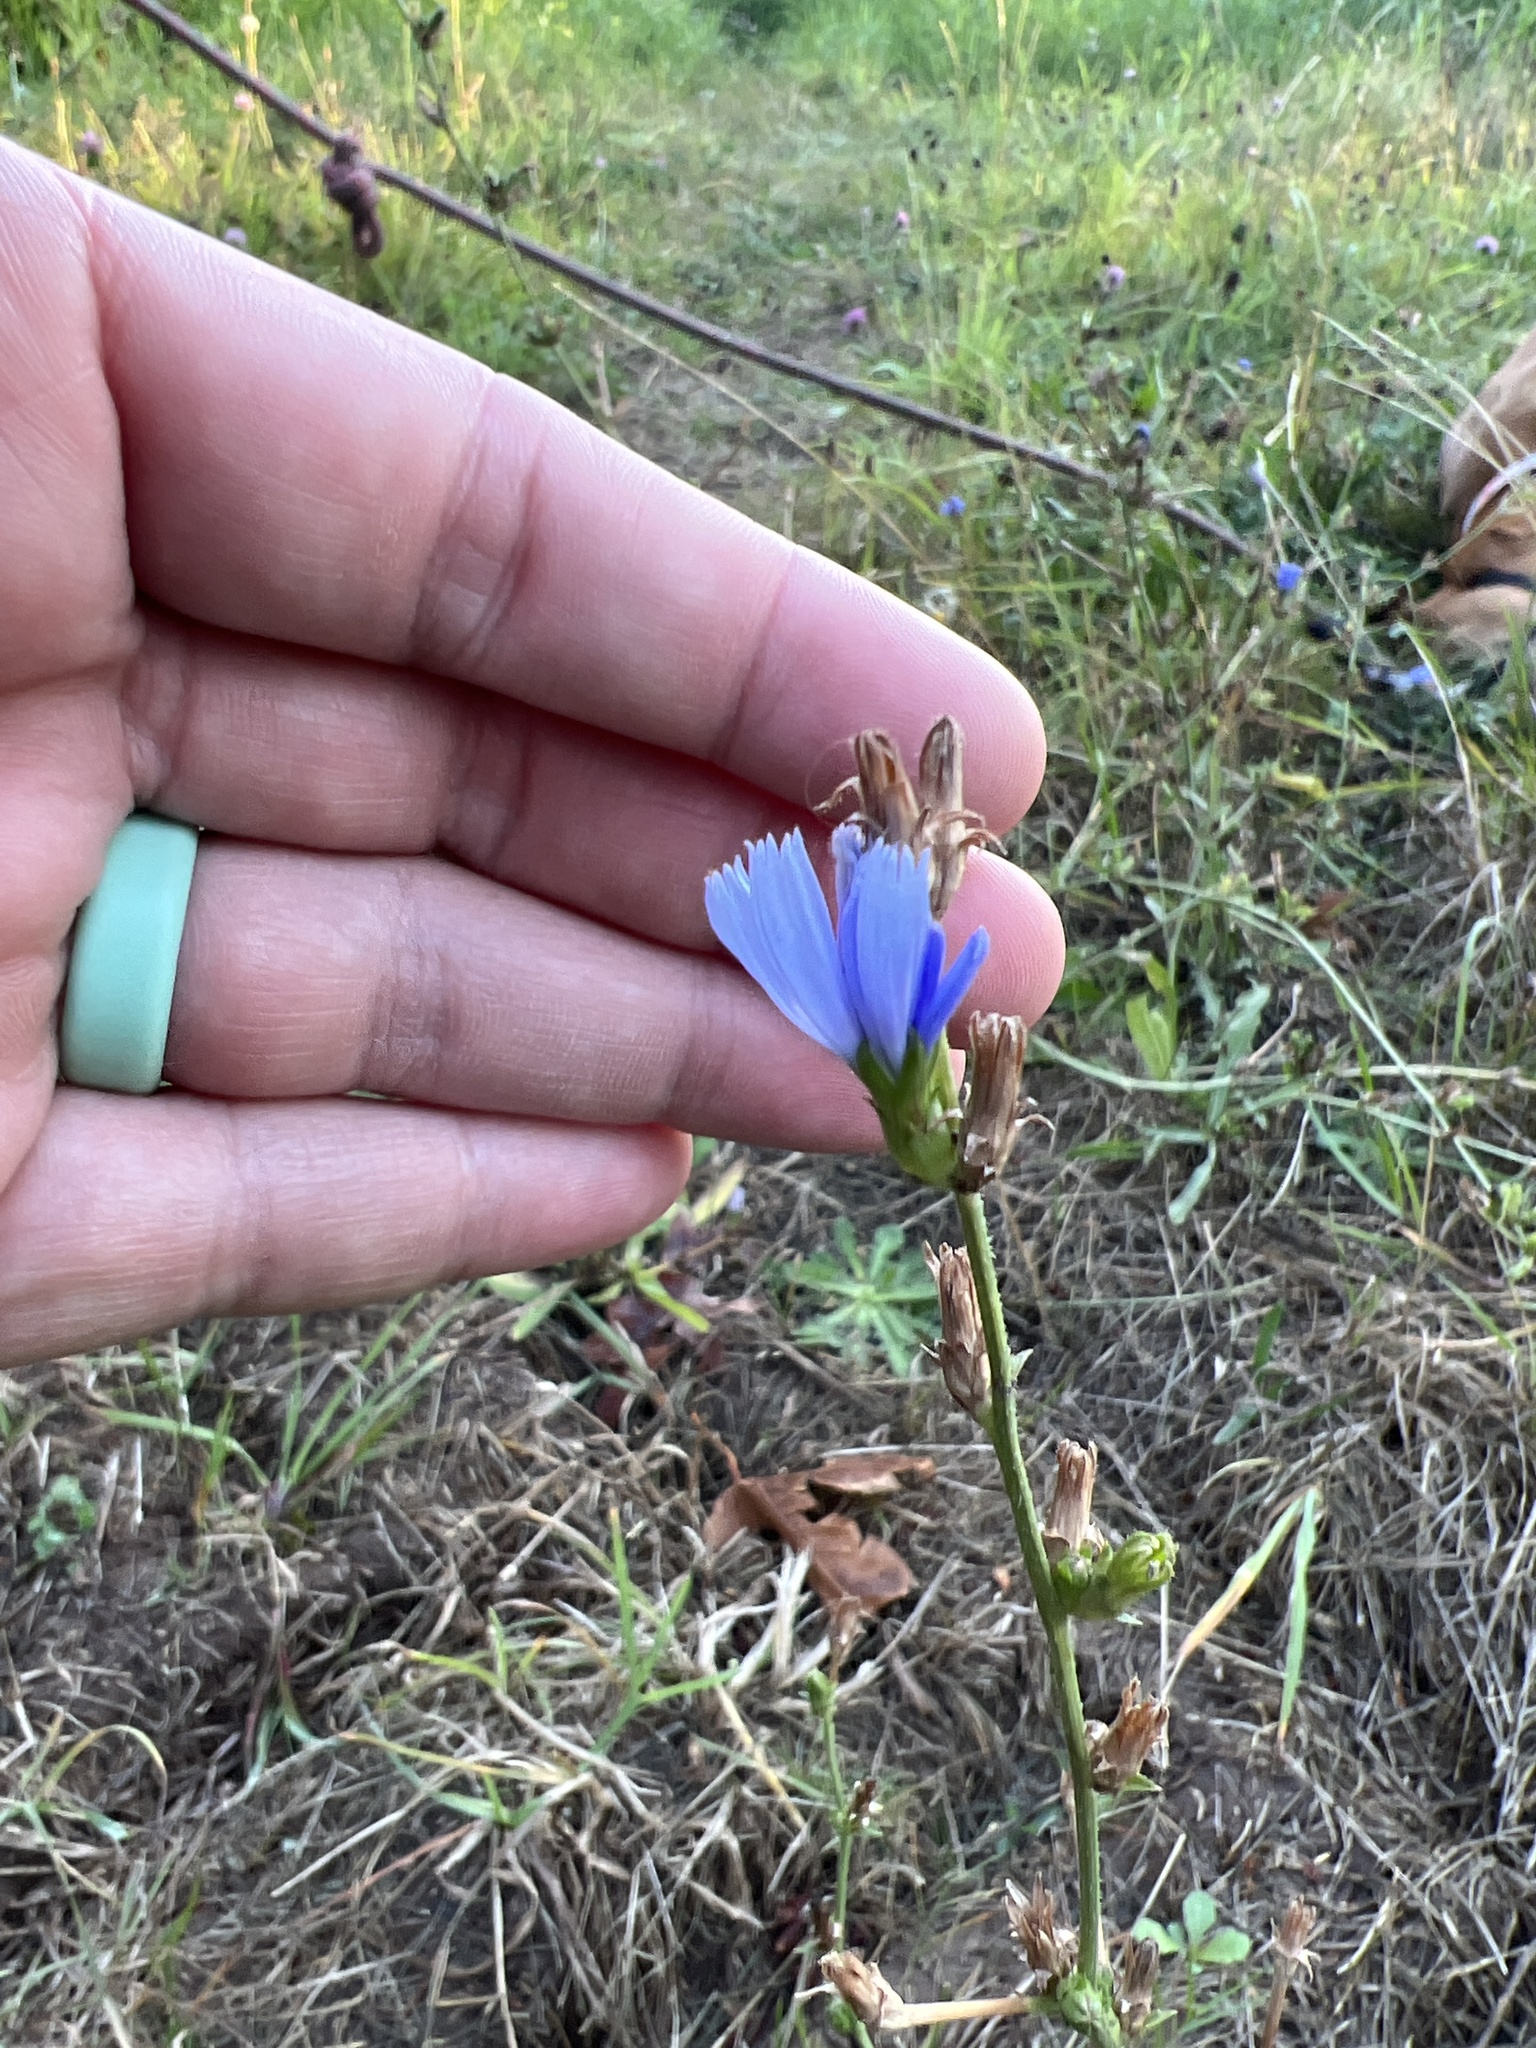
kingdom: Plantae
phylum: Tracheophyta
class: Magnoliopsida
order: Asterales
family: Asteraceae
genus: Cichorium
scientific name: Cichorium intybus
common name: Chicory
